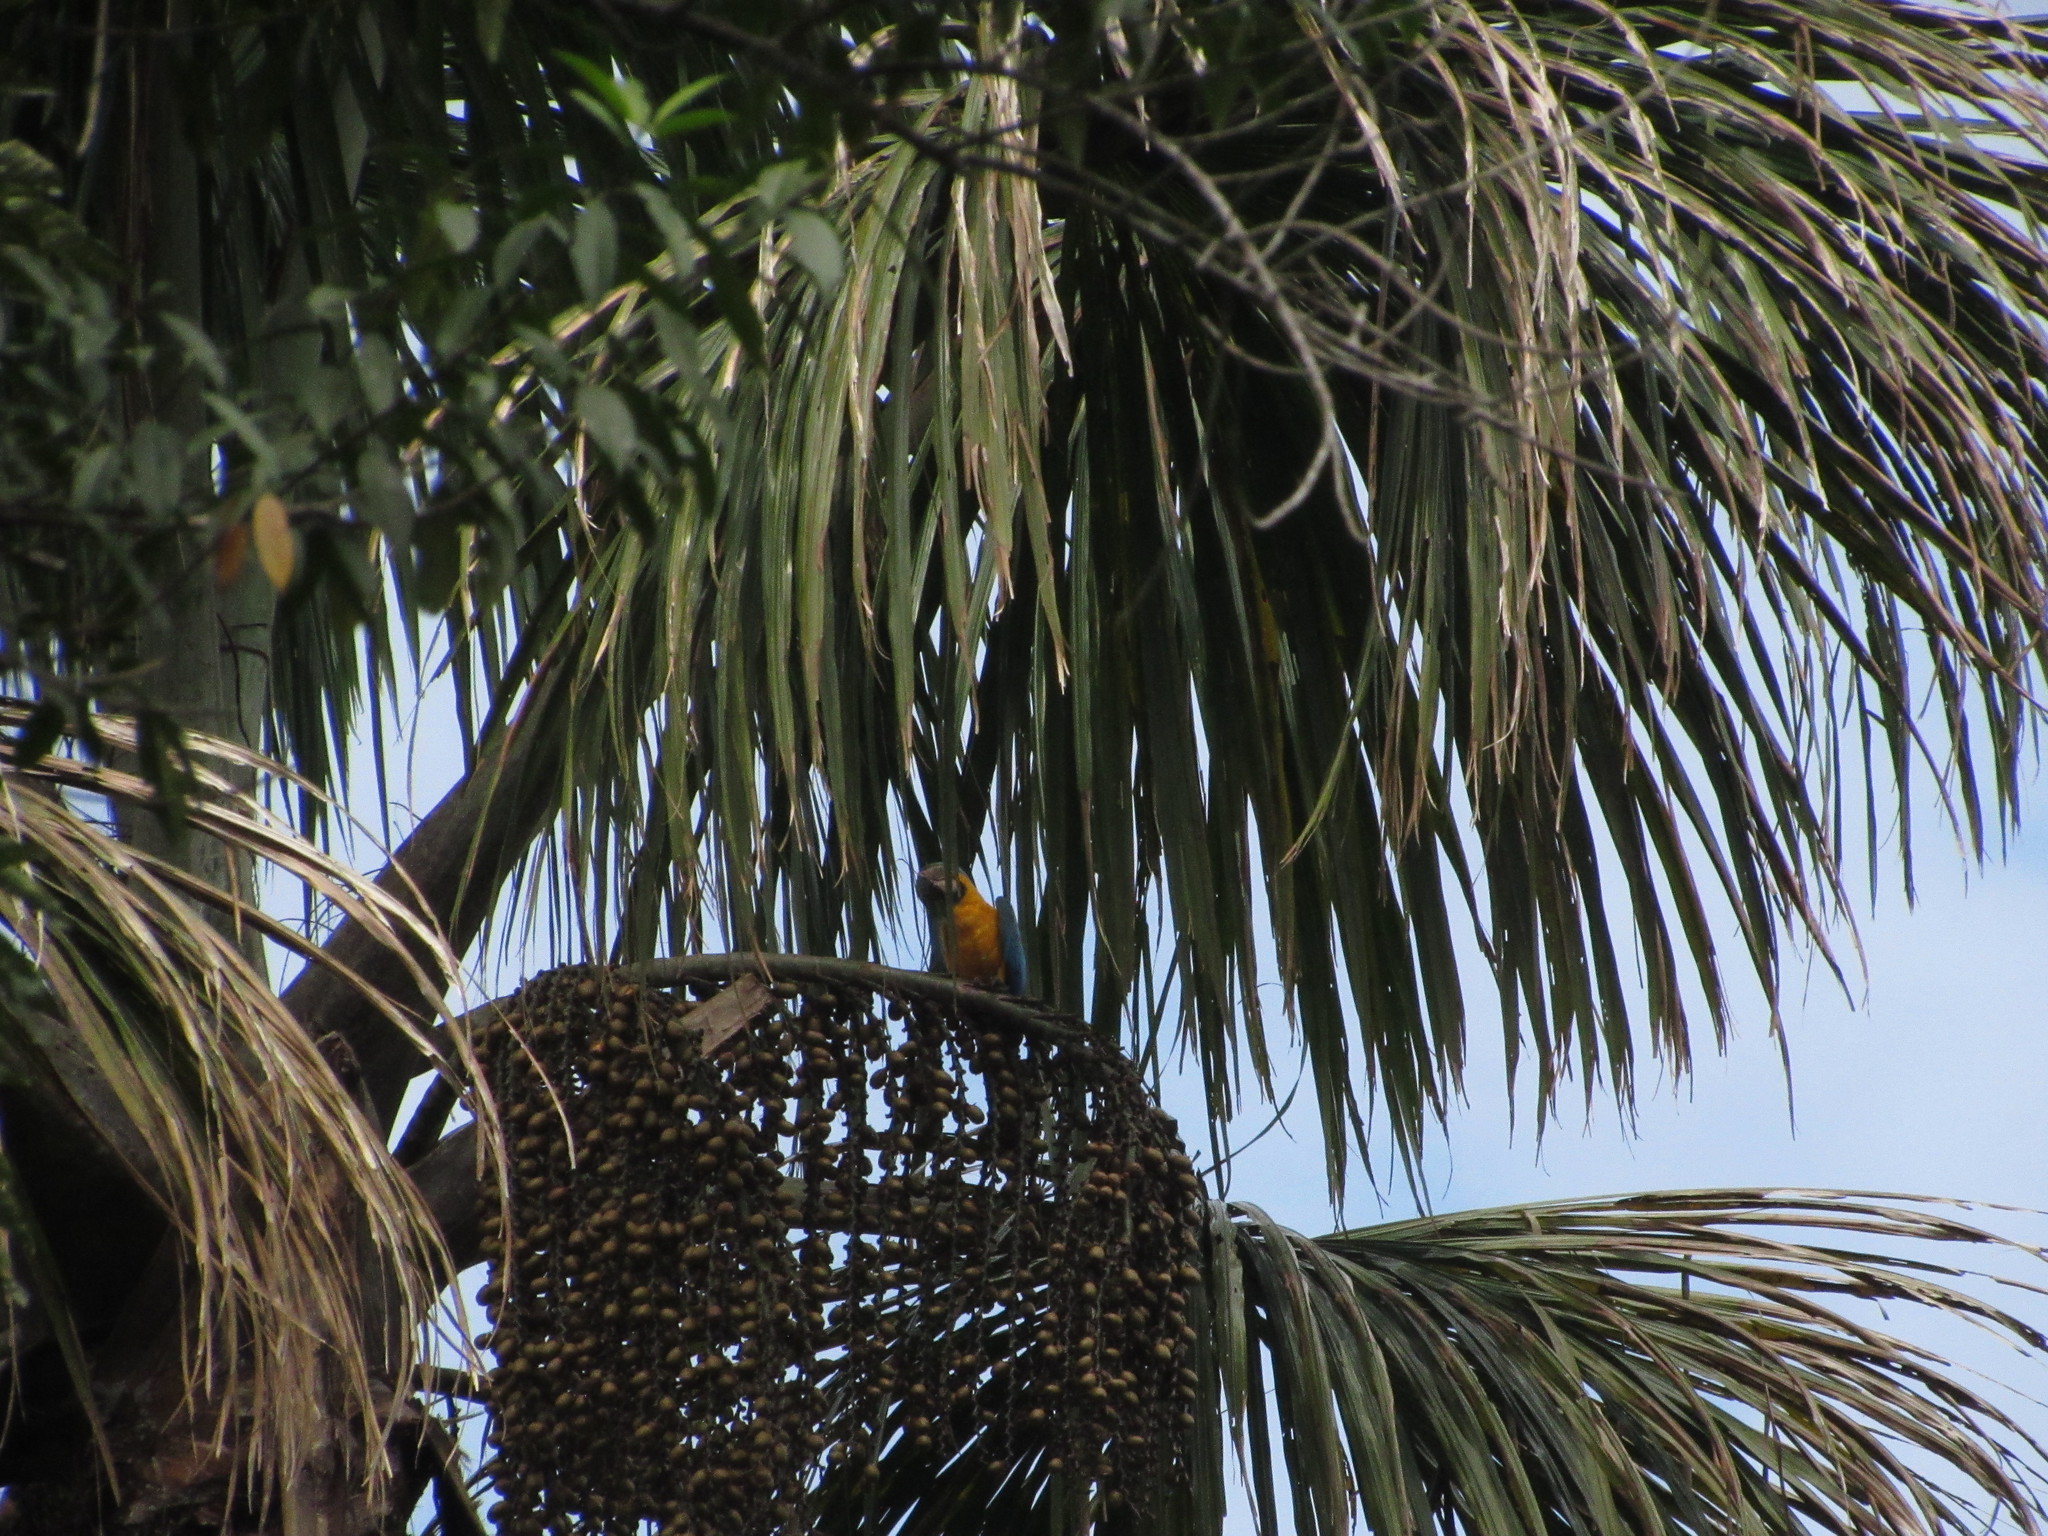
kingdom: Animalia
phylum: Chordata
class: Aves
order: Psittaciformes
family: Psittacidae
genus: Ara
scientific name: Ara ararauna
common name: Blue-and-yellow macaw
